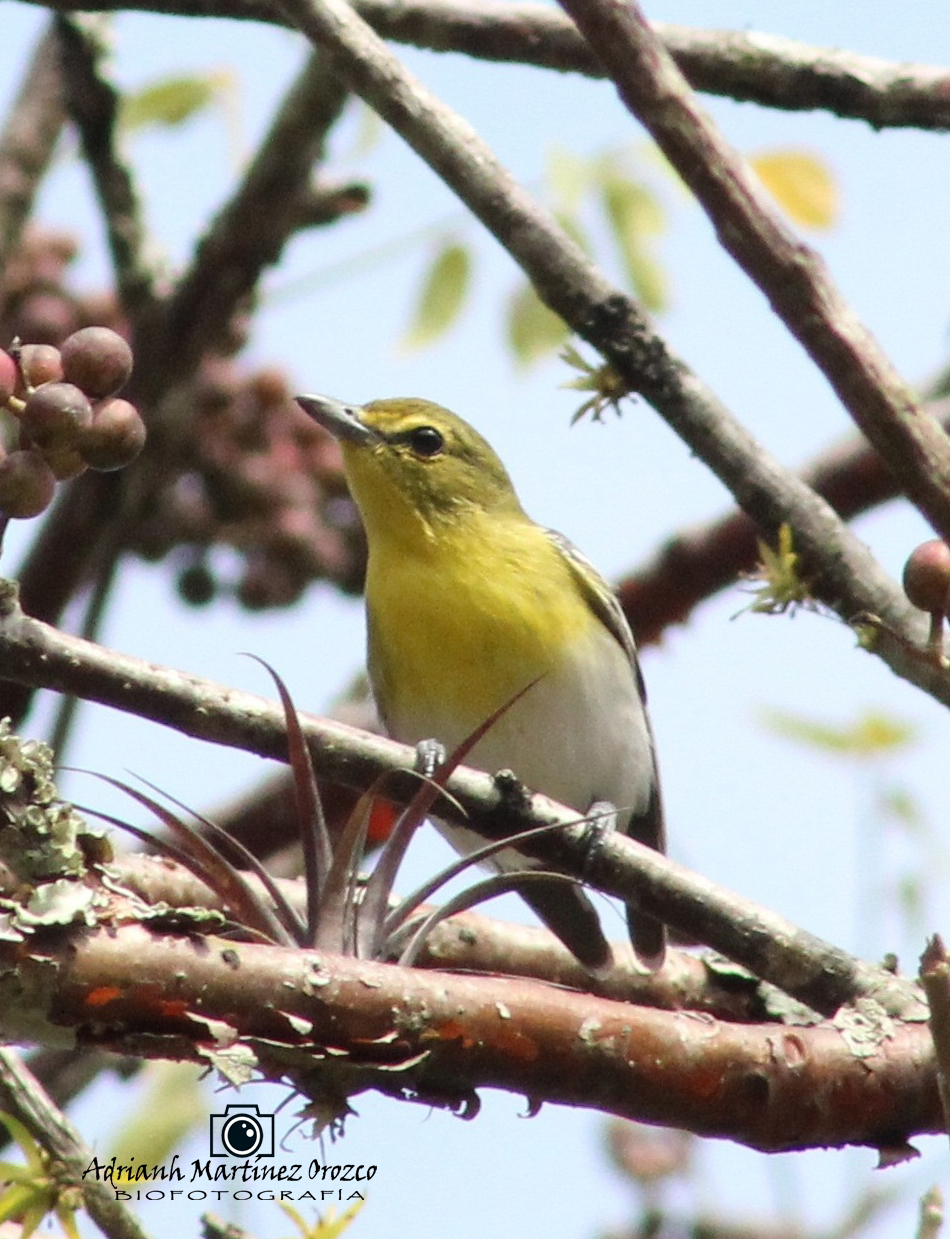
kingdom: Animalia
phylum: Chordata
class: Aves
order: Passeriformes
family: Vireonidae
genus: Vireo
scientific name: Vireo flavifrons
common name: Yellow-throated vireo
